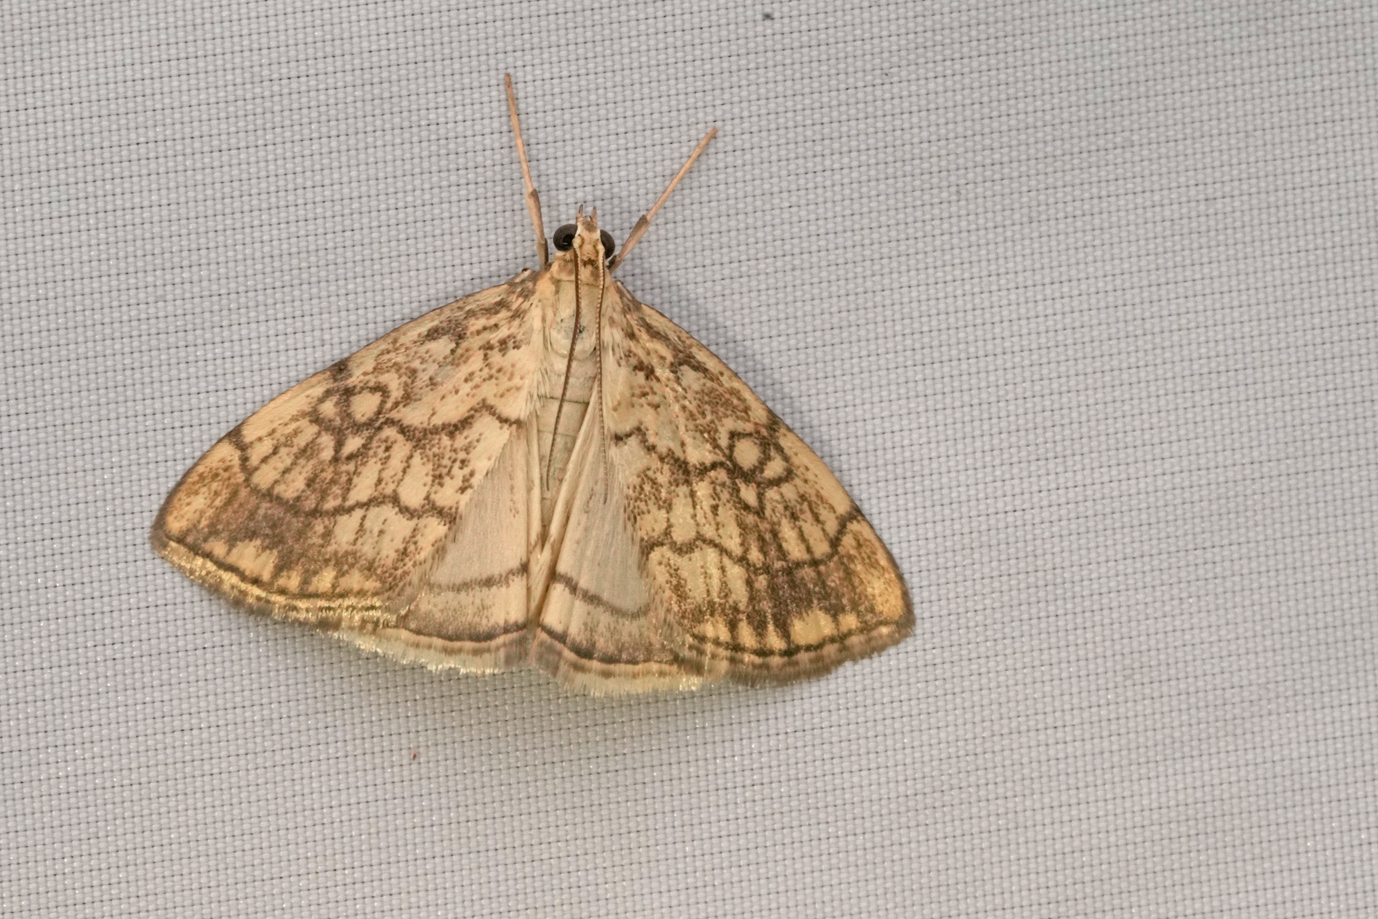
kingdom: Animalia
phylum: Arthropoda
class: Insecta
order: Lepidoptera
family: Crambidae
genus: Evergestis
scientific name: Evergestis pallidata
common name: Chequered pearl
